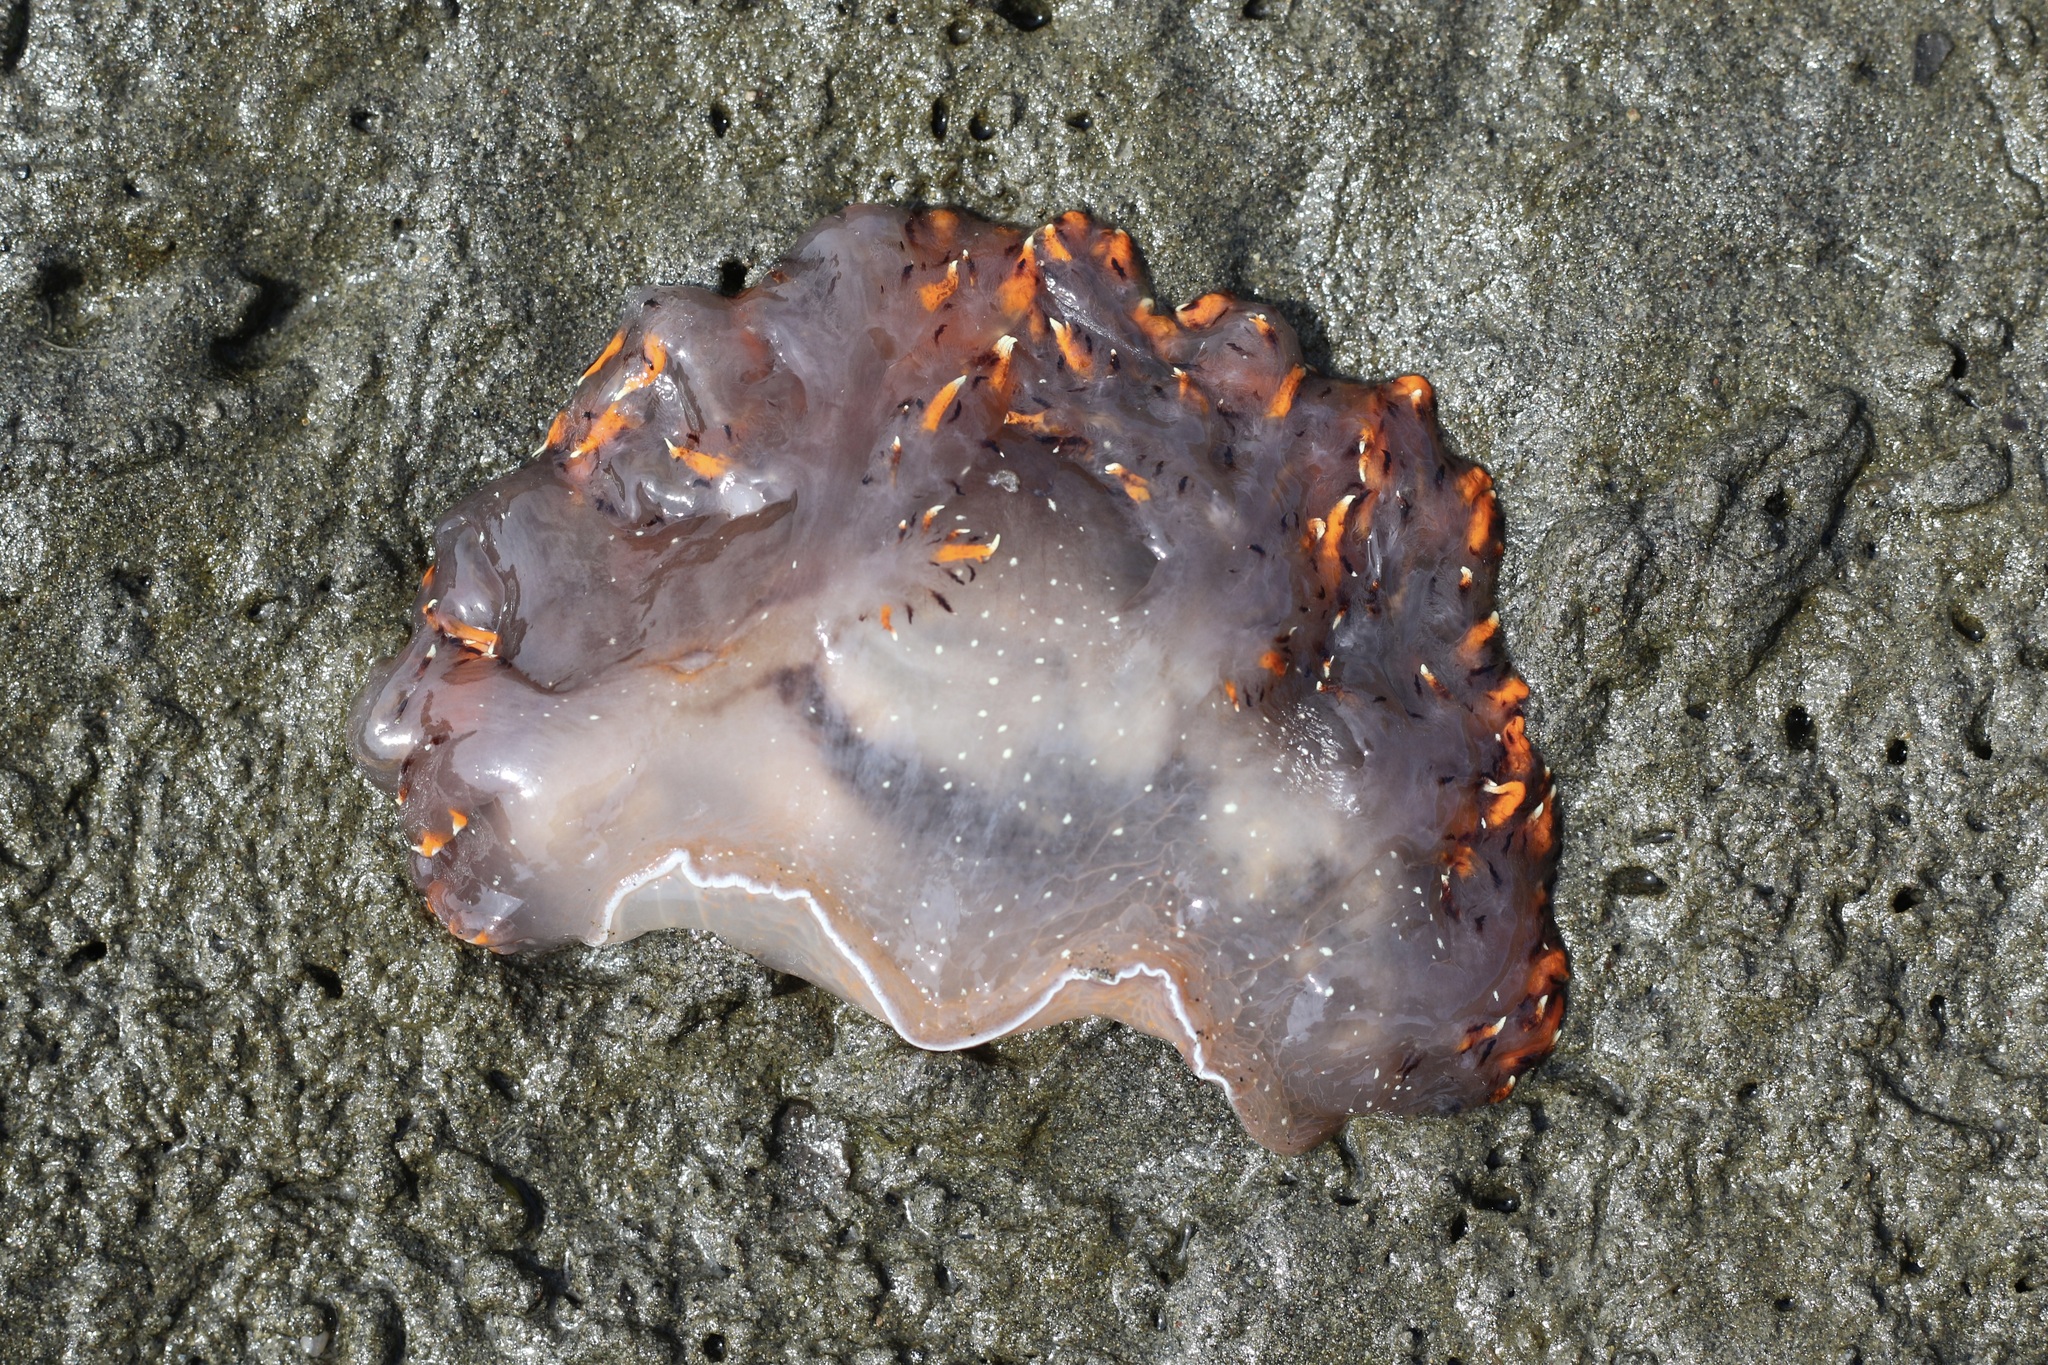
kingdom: Animalia
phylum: Mollusca
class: Gastropoda
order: Nudibranchia
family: Dendronotidae
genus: Dendronotus
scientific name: Dendronotus iris
